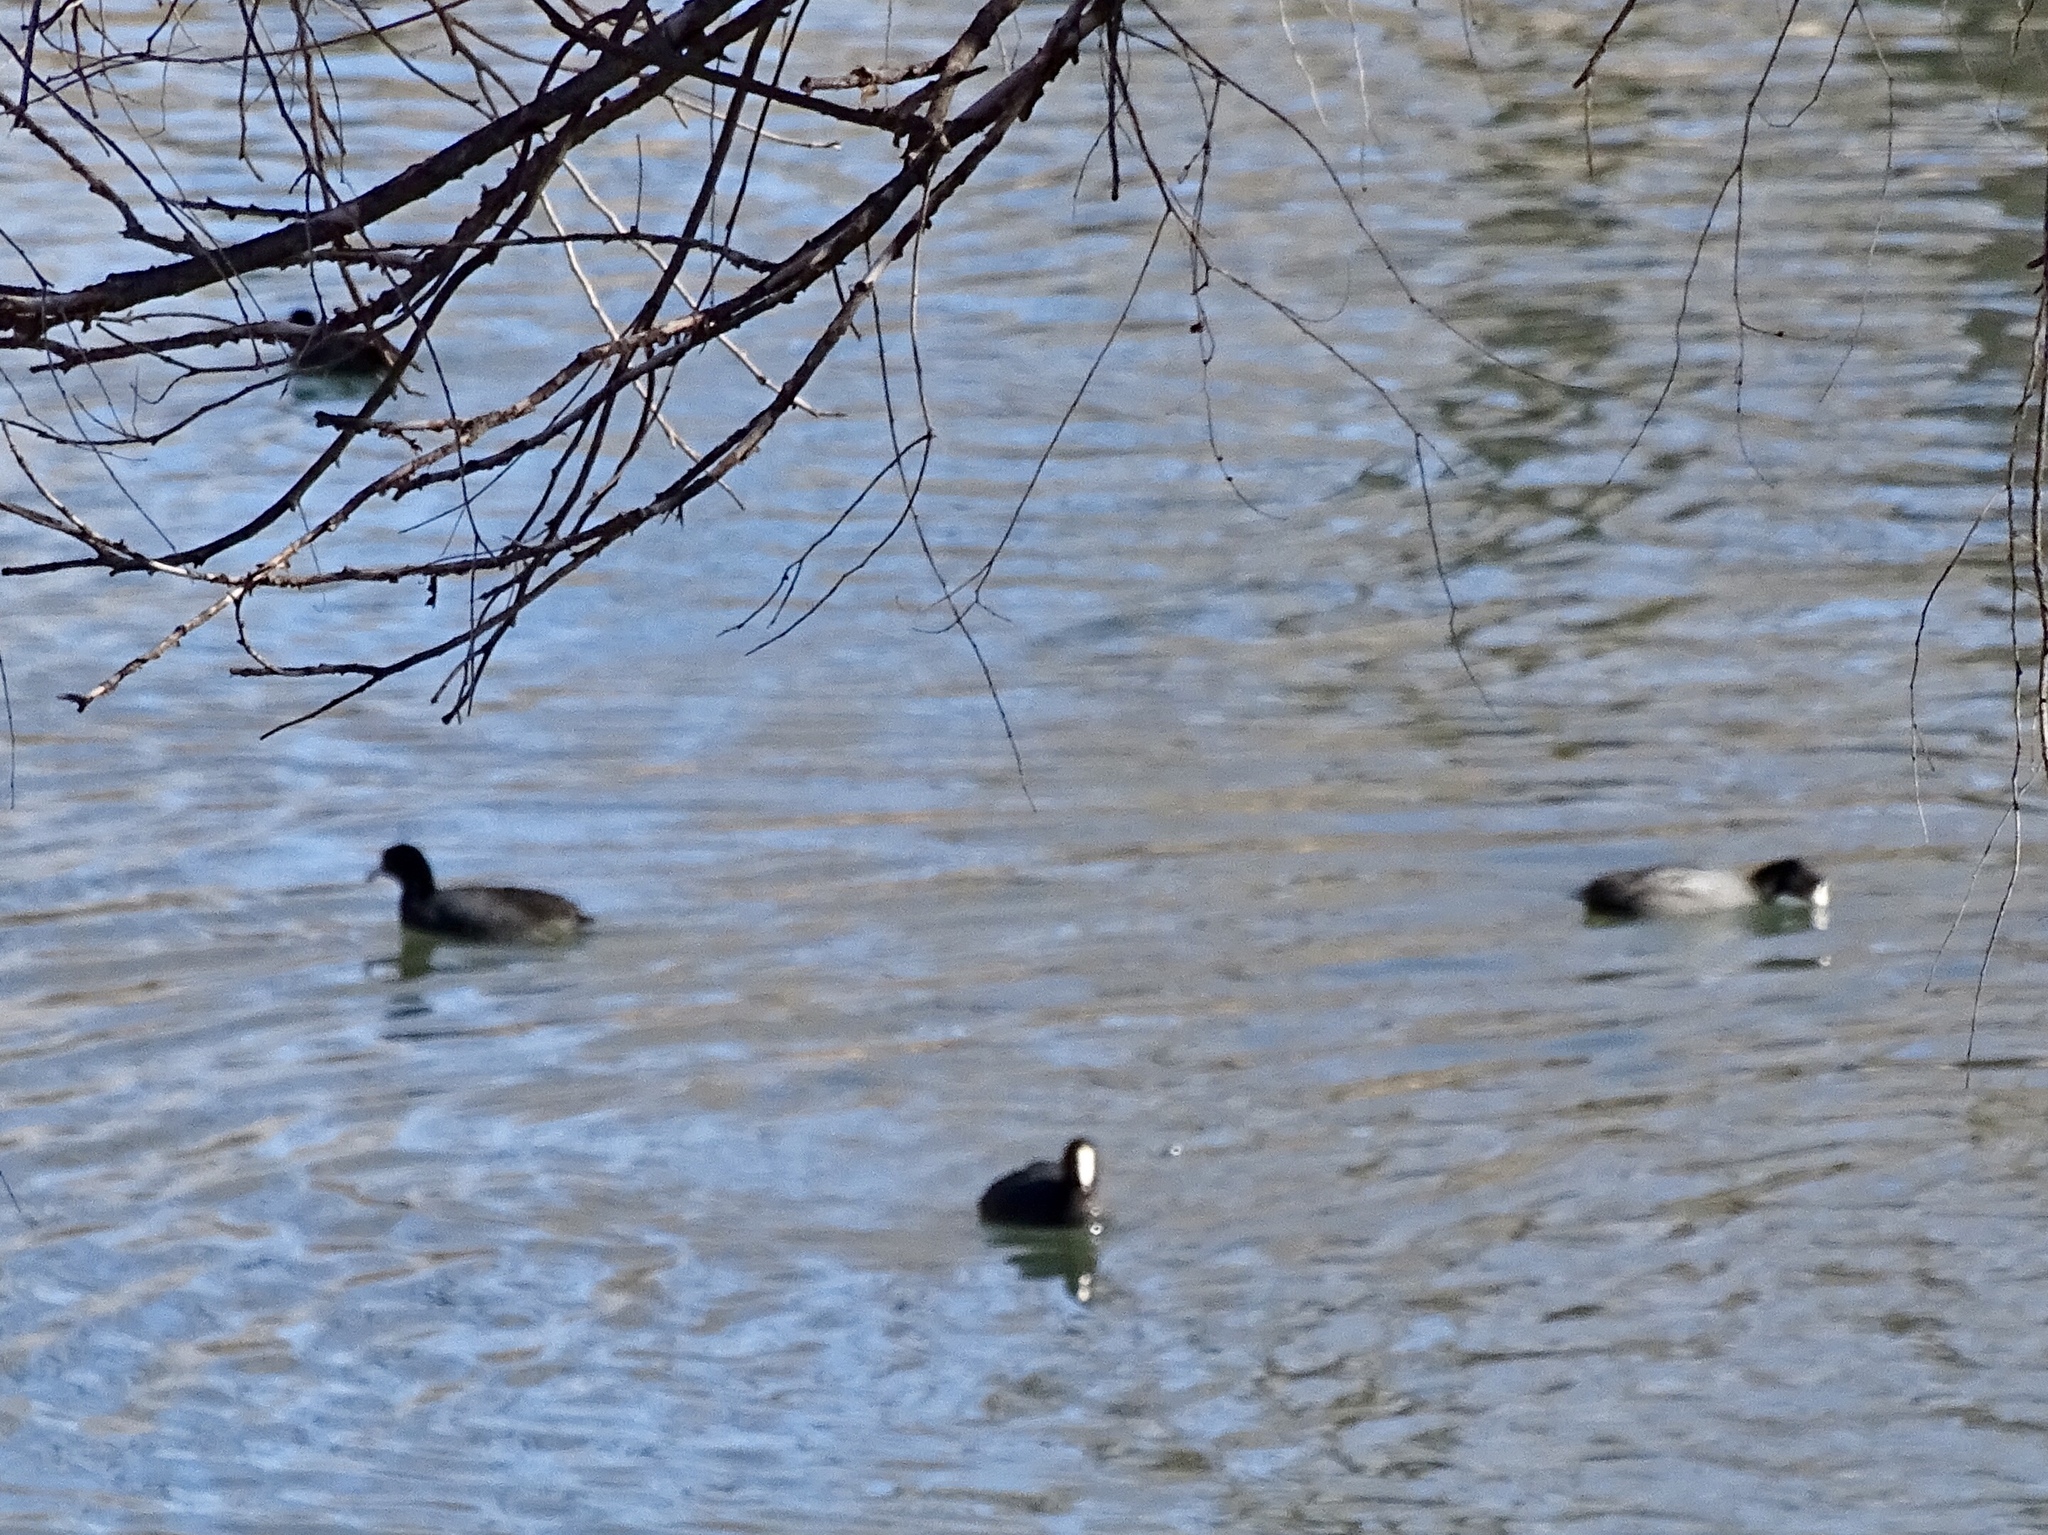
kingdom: Animalia
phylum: Chordata
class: Aves
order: Gruiformes
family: Rallidae
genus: Fulica
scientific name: Fulica americana
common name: American coot
